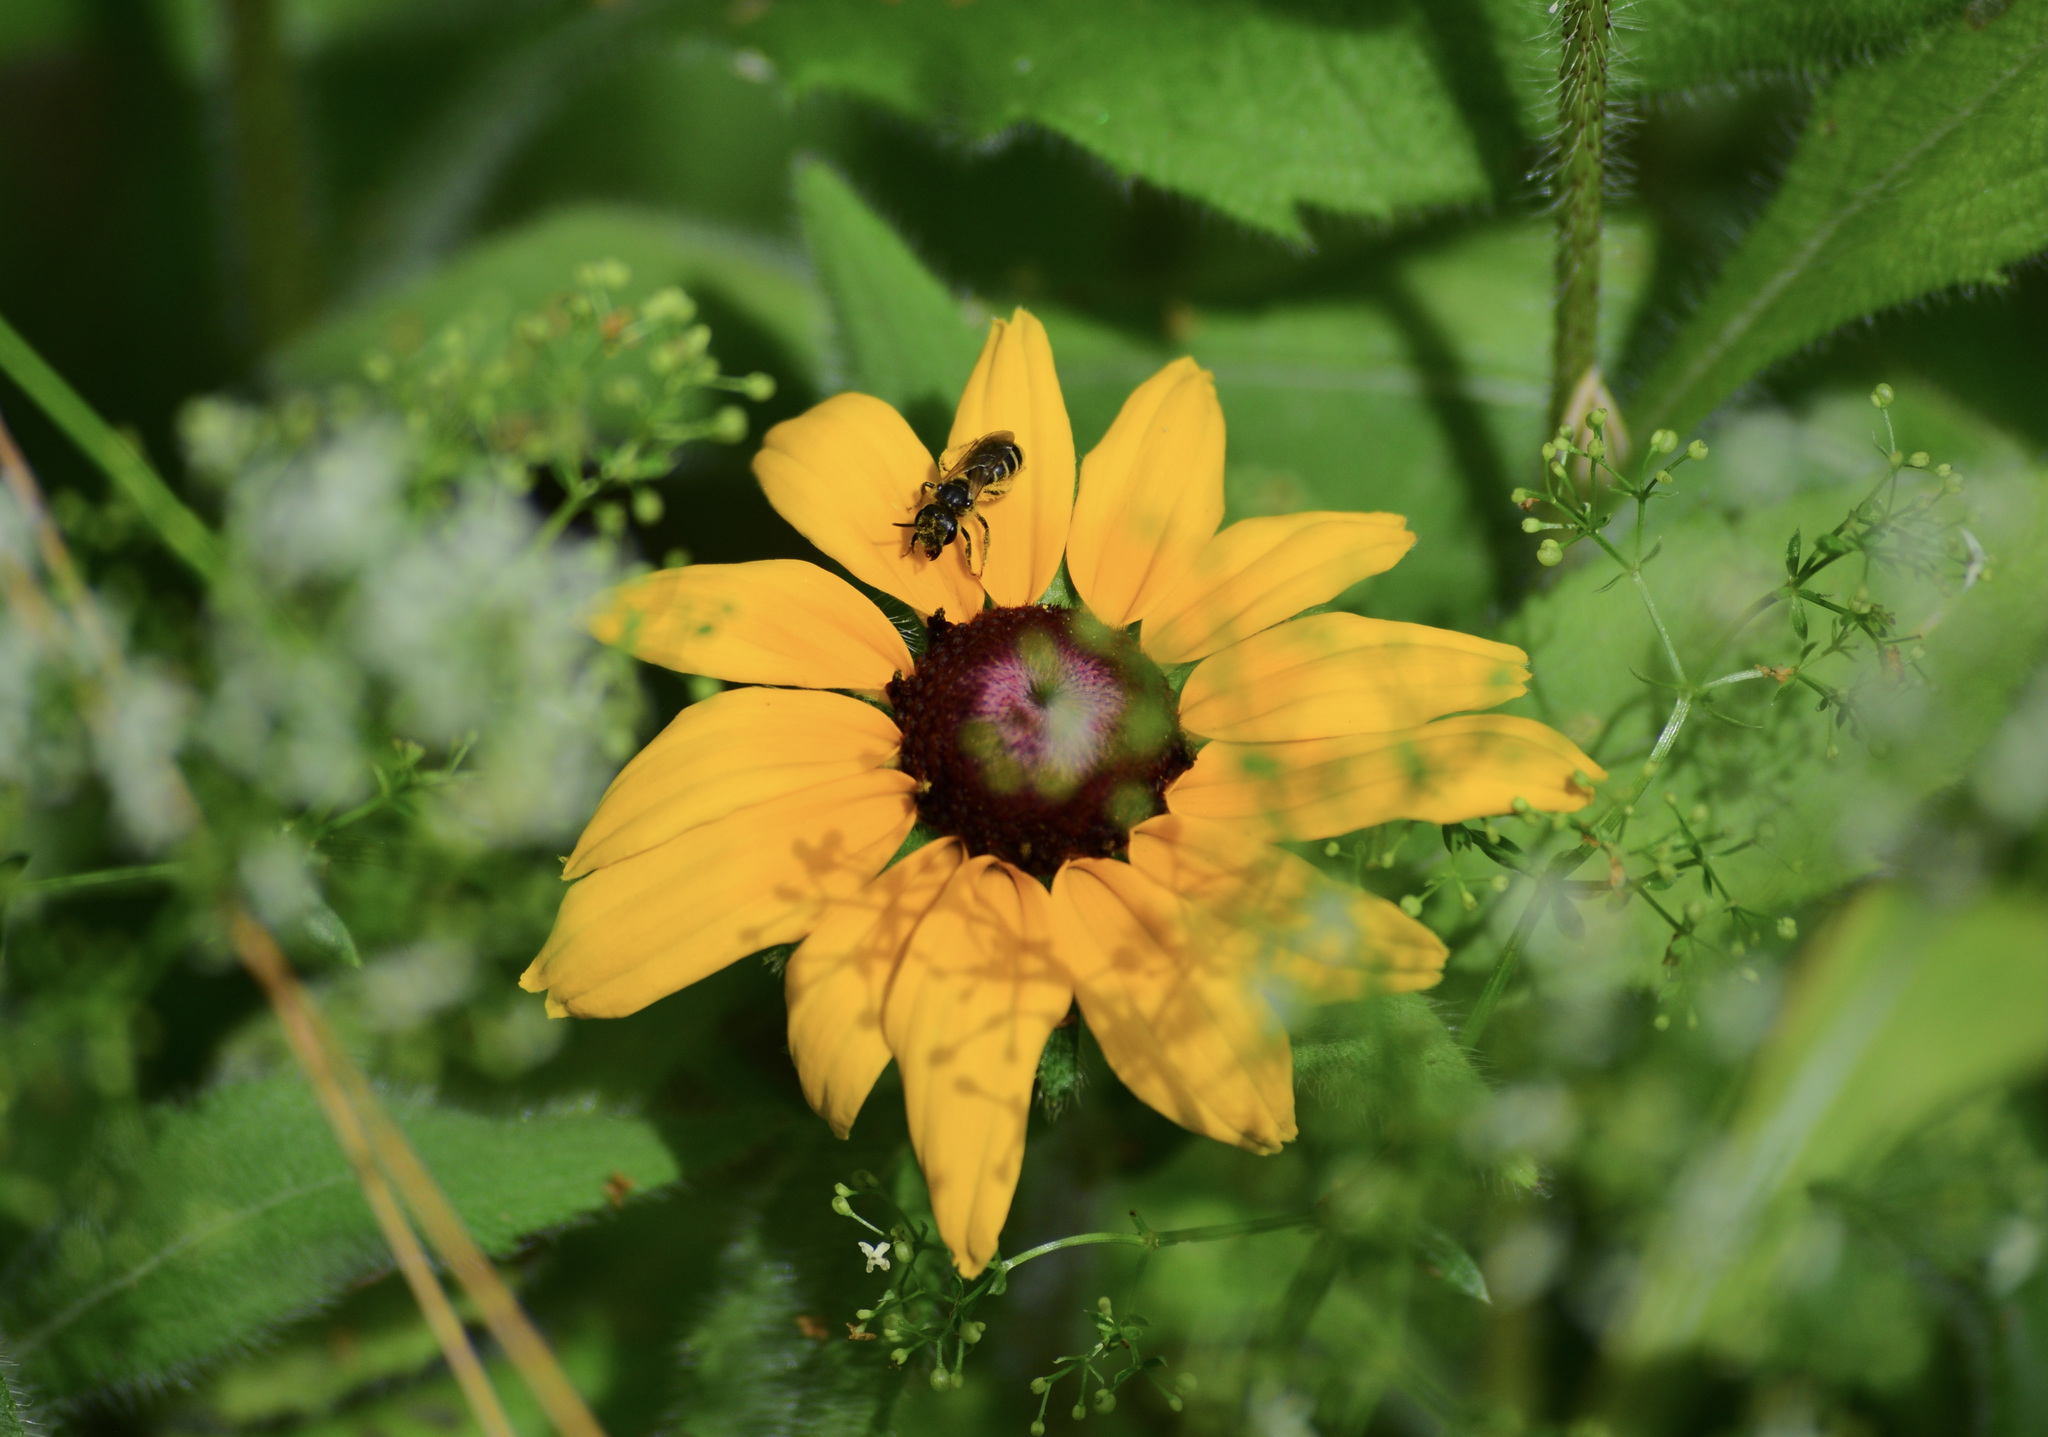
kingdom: Animalia
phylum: Arthropoda
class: Insecta
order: Hymenoptera
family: Halictidae
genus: Halictus
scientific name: Halictus ligatus
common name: Ligated furrow bee
